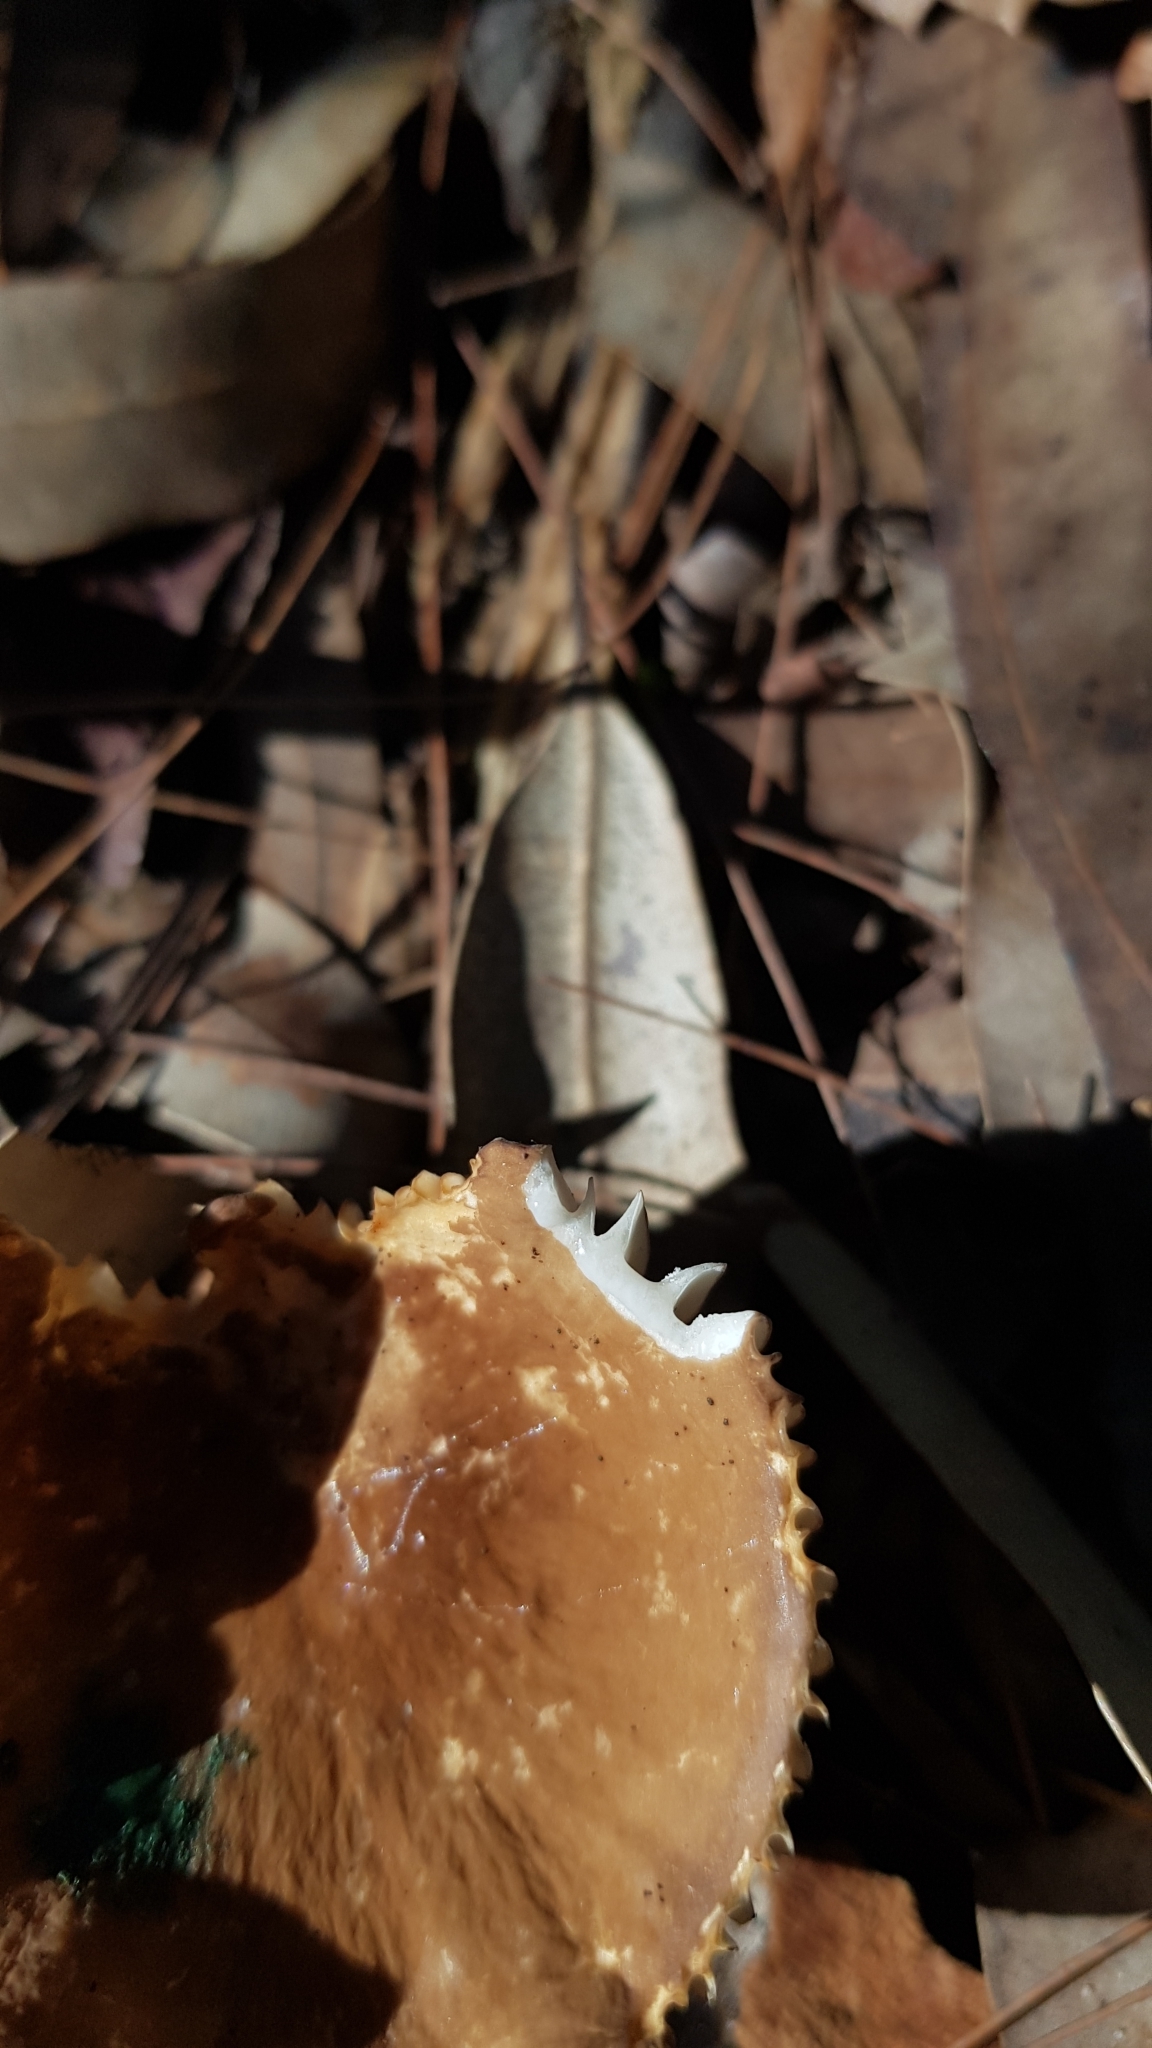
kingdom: Fungi
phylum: Basidiomycota
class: Agaricomycetes
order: Russulales
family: Russulaceae
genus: Lactifluus
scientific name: Lactifluus sepiaceus
